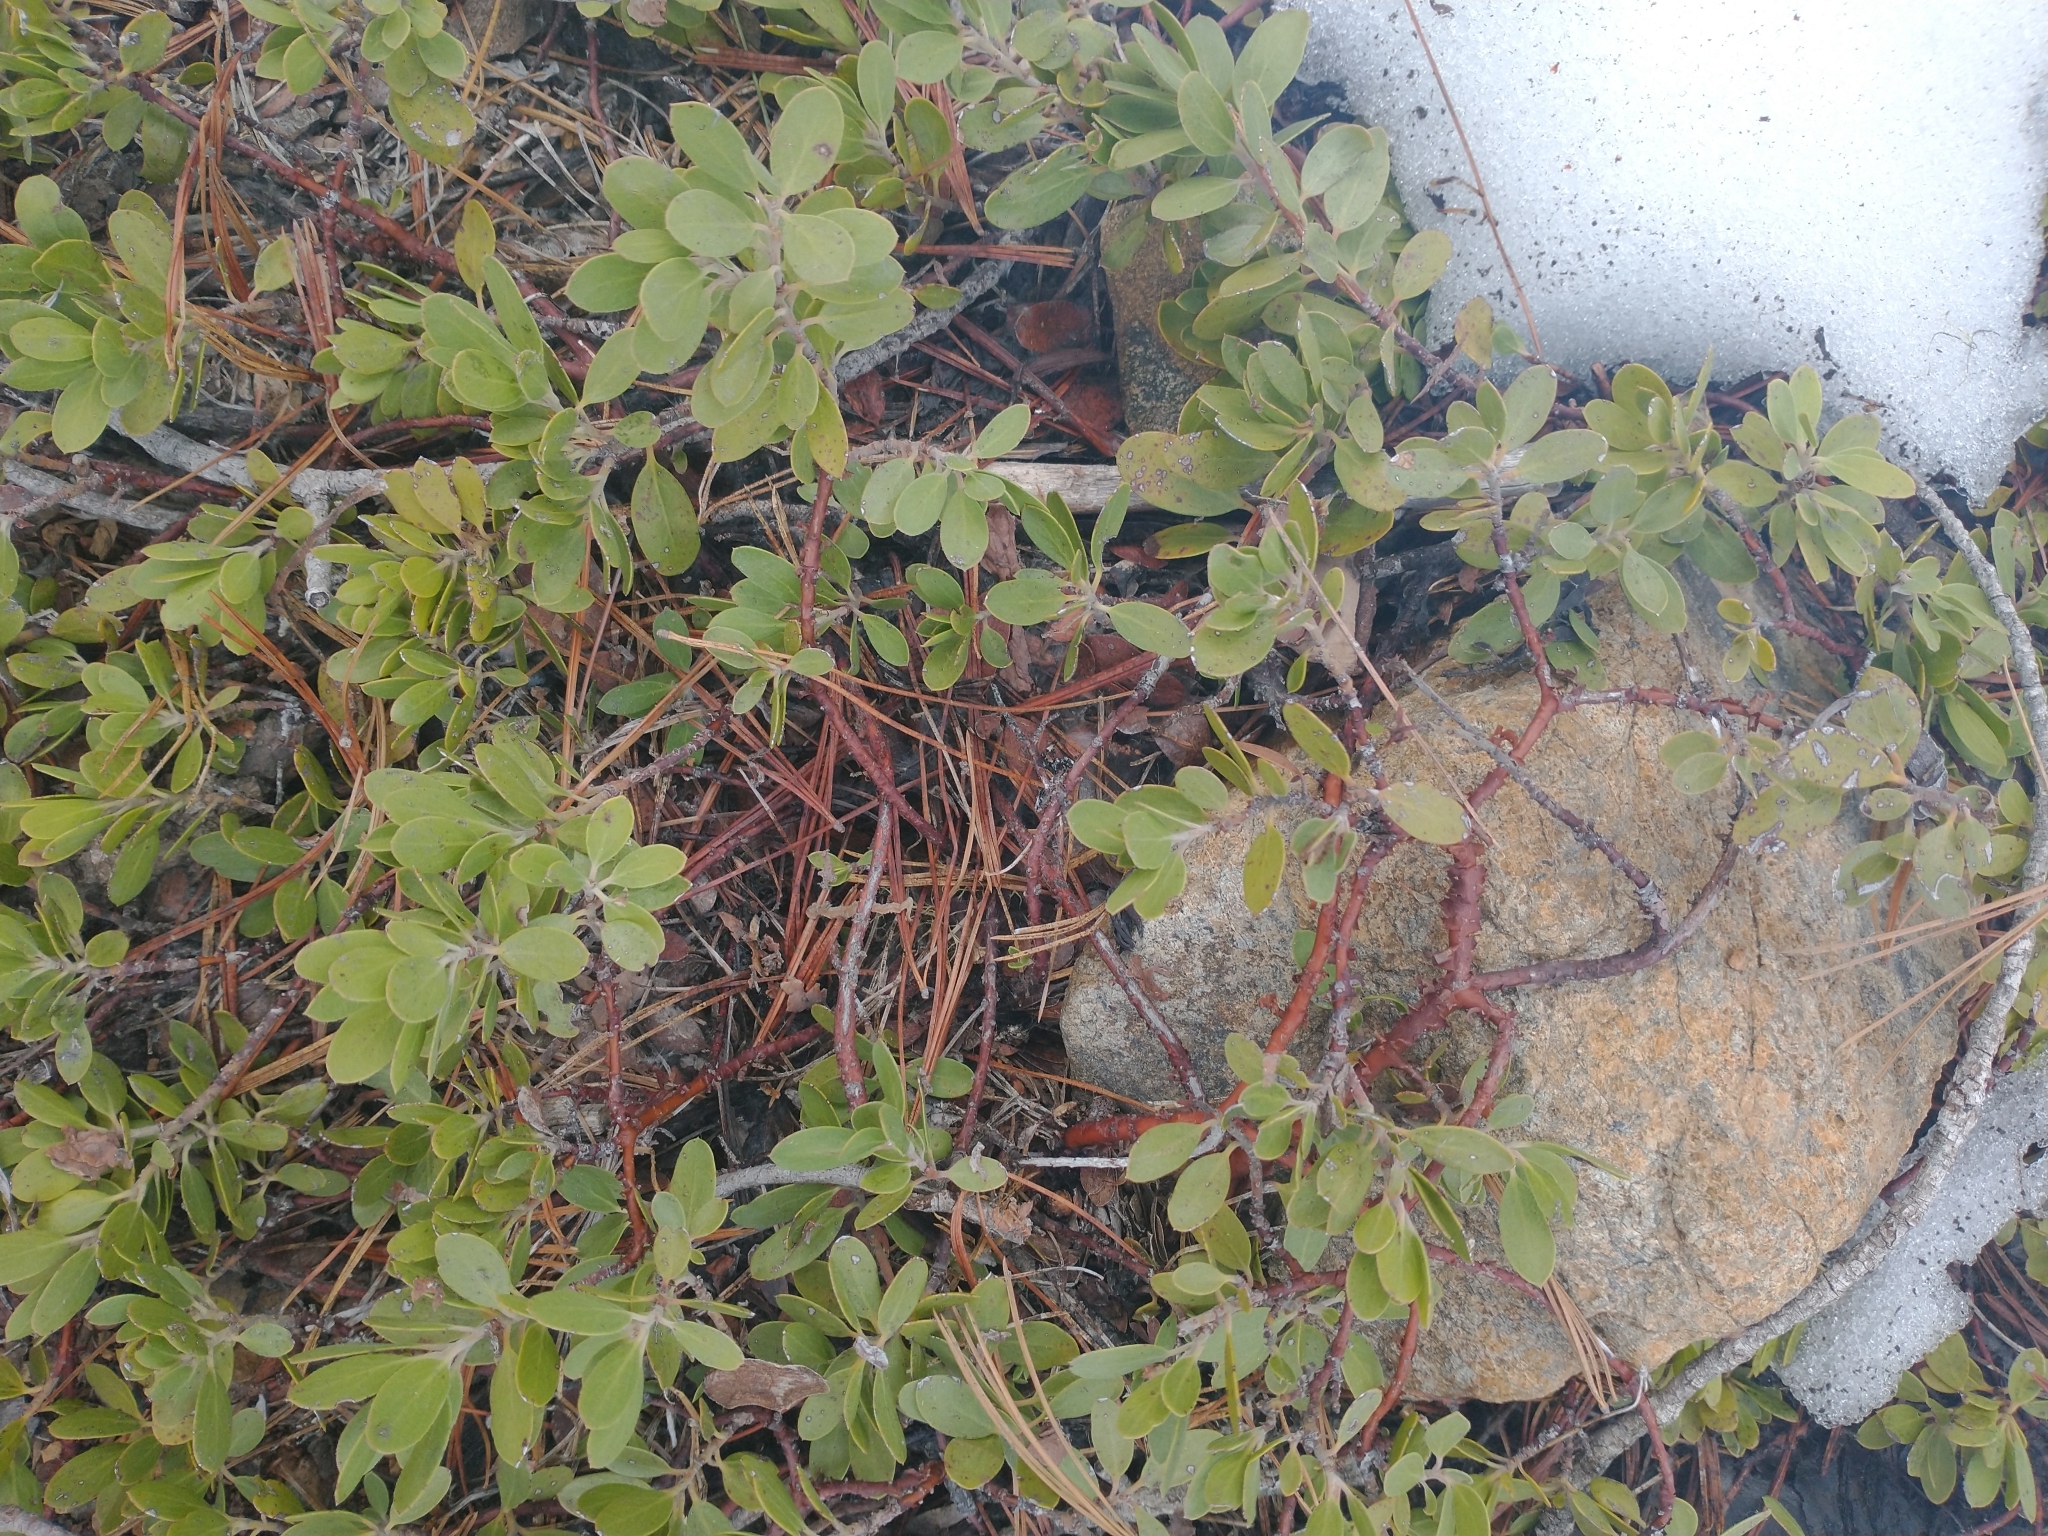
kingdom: Plantae
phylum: Tracheophyta
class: Magnoliopsida
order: Ericales
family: Ericaceae
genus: Arctostaphylos
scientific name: Arctostaphylos nevadensis
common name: Pinemat manzanita
